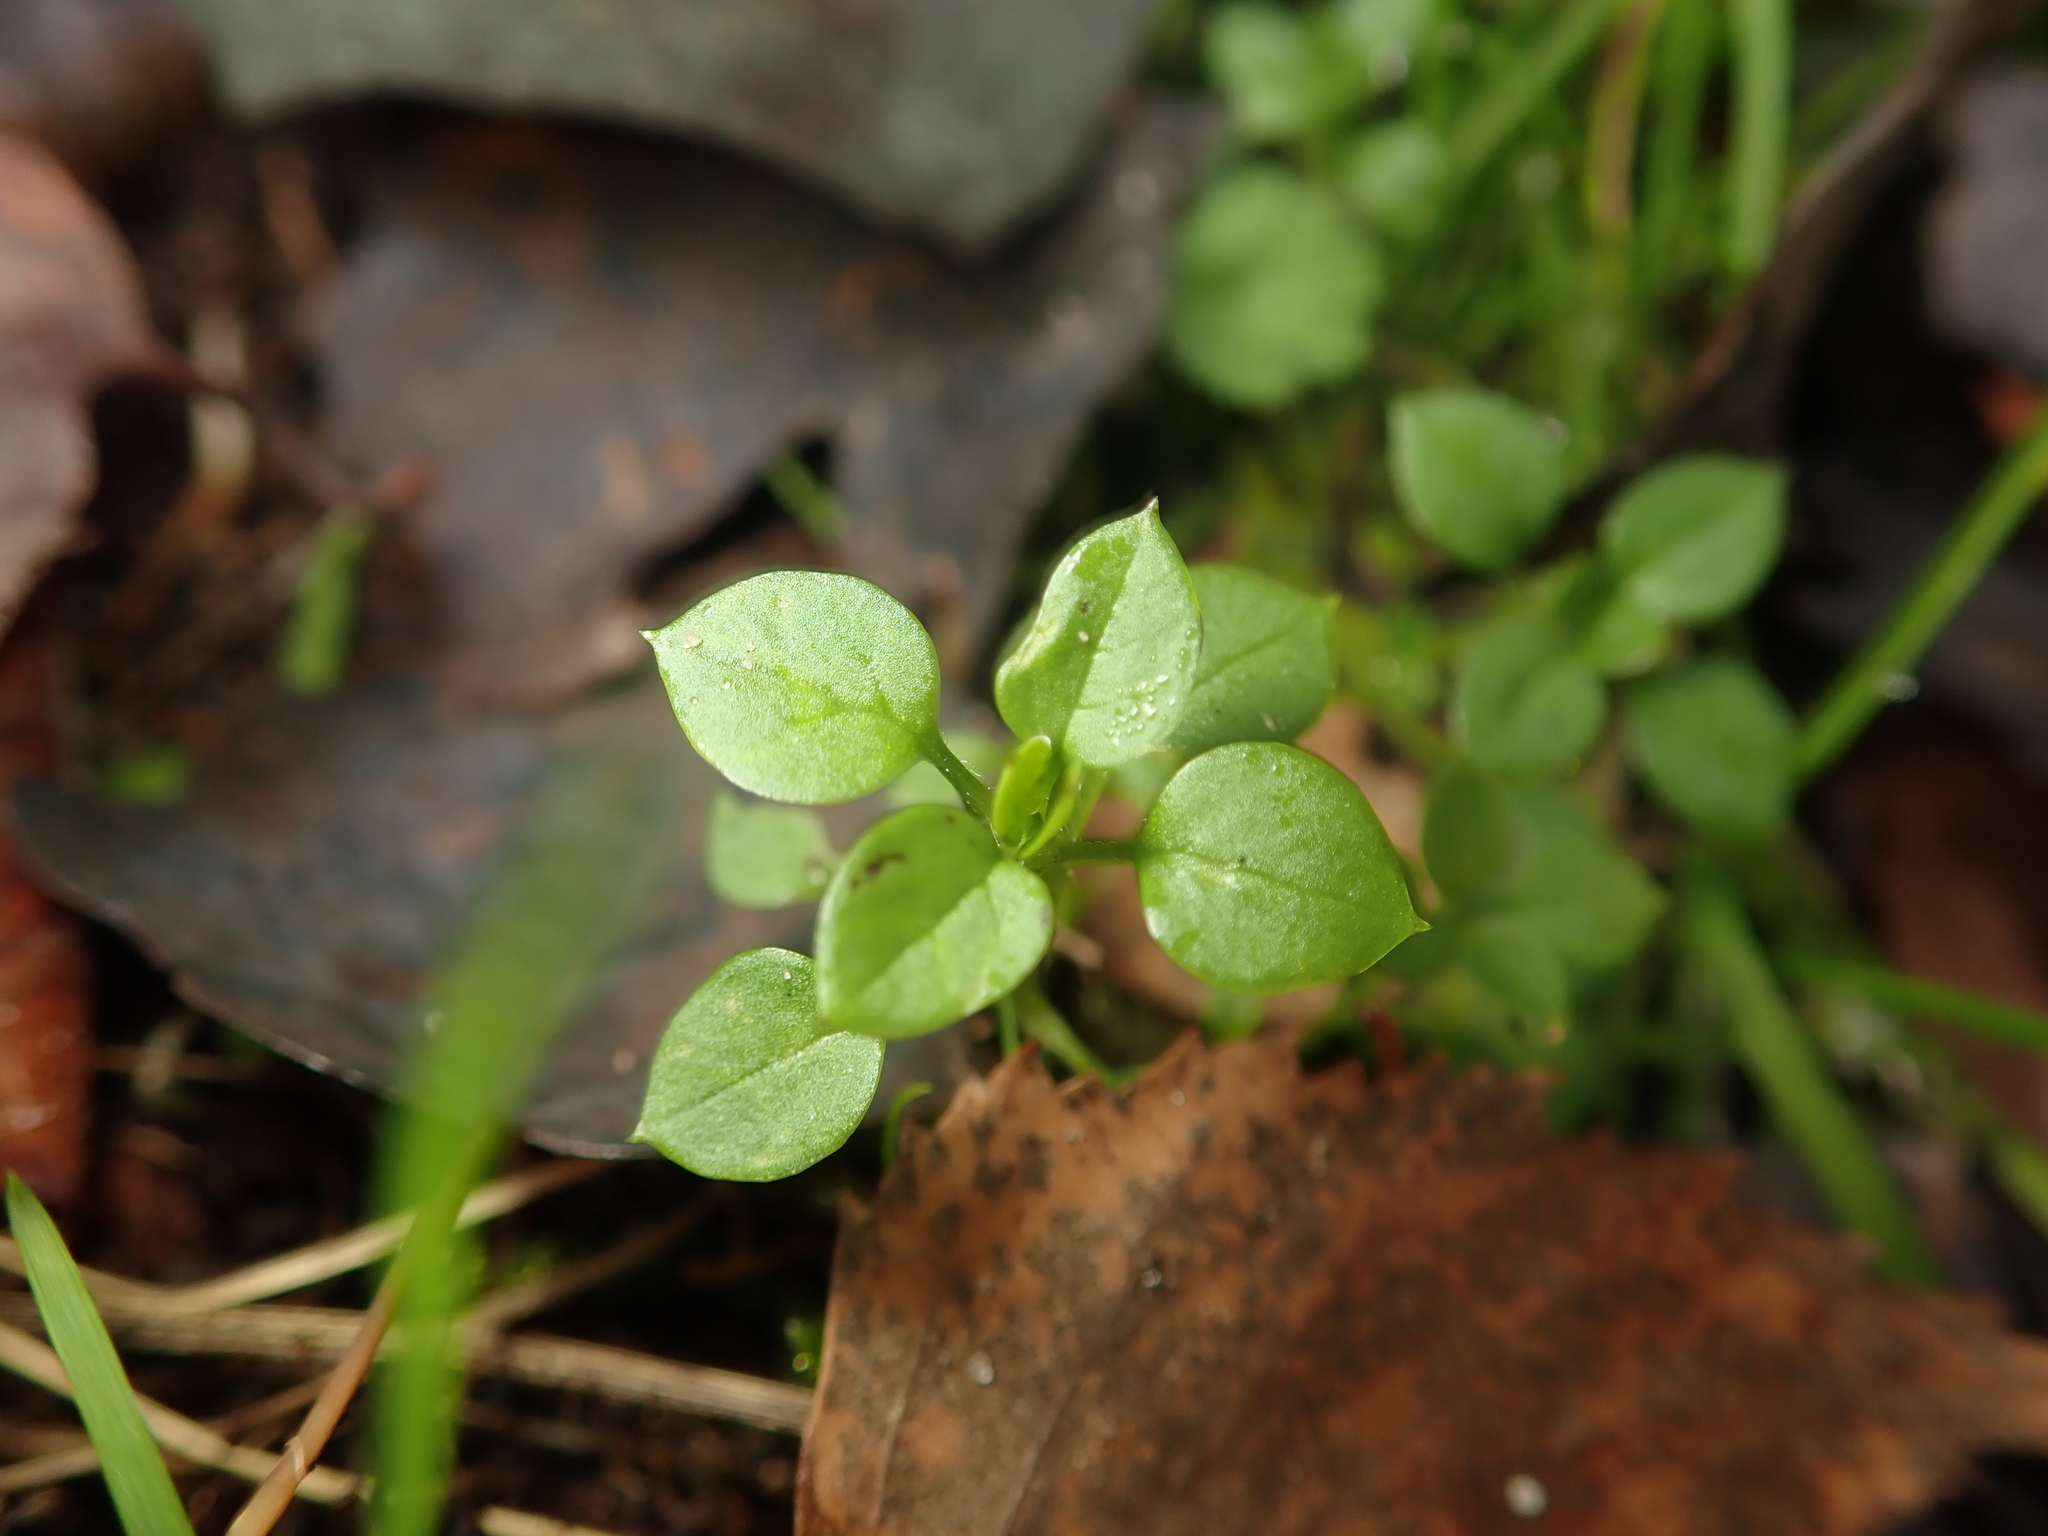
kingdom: Plantae
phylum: Tracheophyta
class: Magnoliopsida
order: Caryophyllales
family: Caryophyllaceae
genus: Stellaria
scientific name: Stellaria media
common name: Common chickweed
